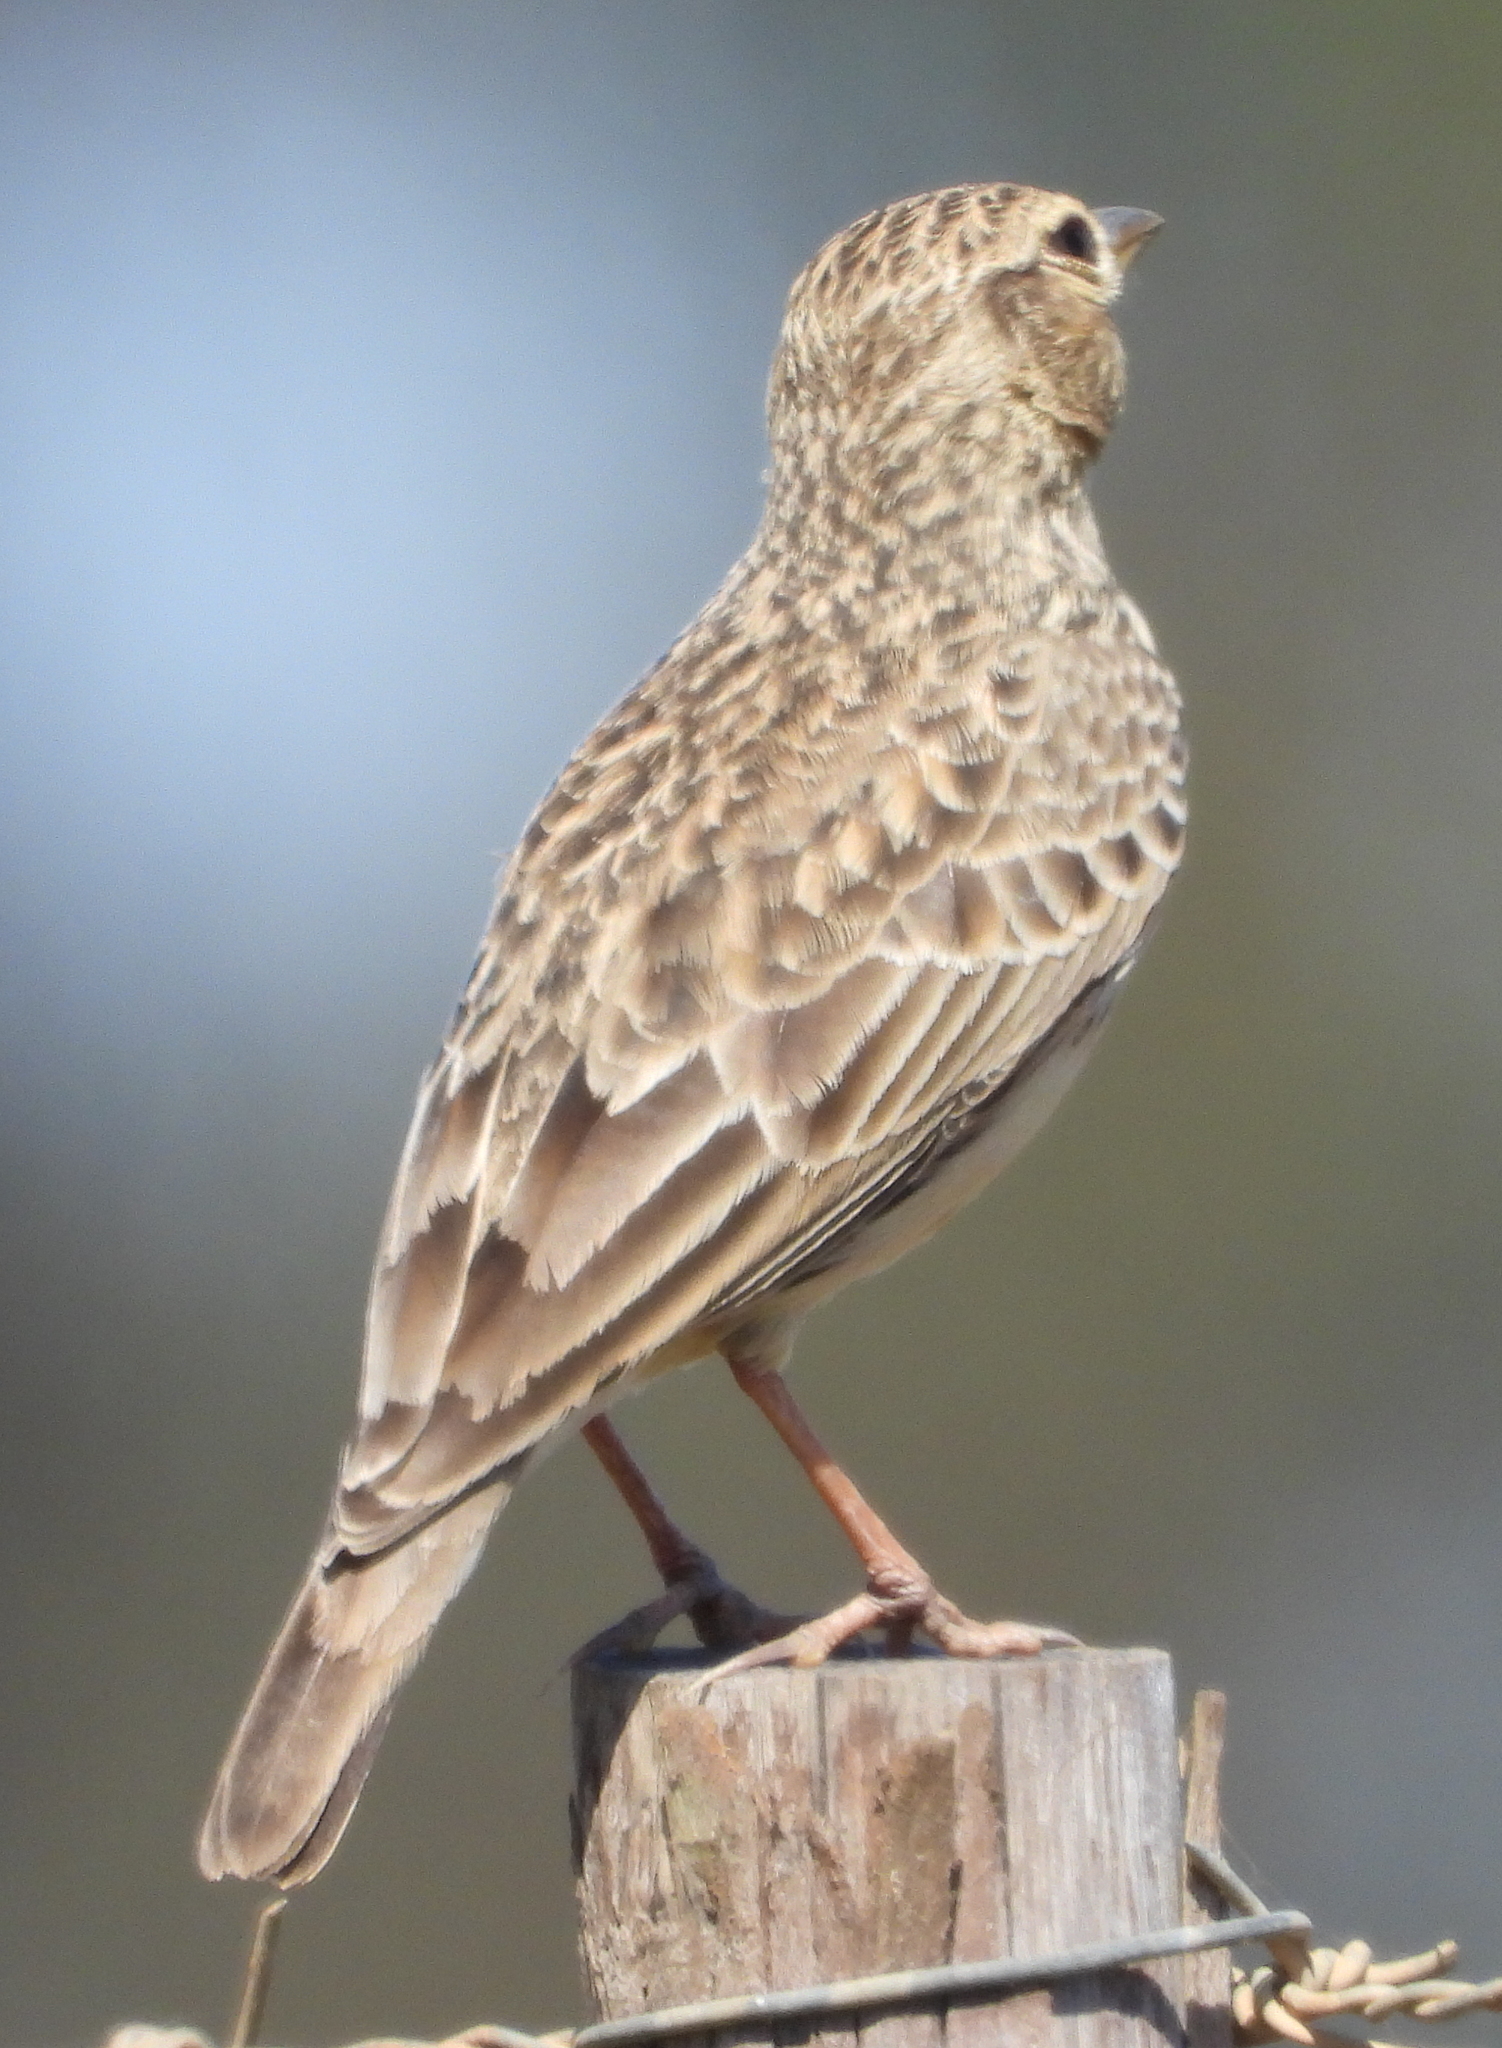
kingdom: Animalia
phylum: Chordata
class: Aves
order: Passeriformes
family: Alaudidae
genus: Galerida
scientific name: Galerida magnirostris
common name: Large-billed lark
